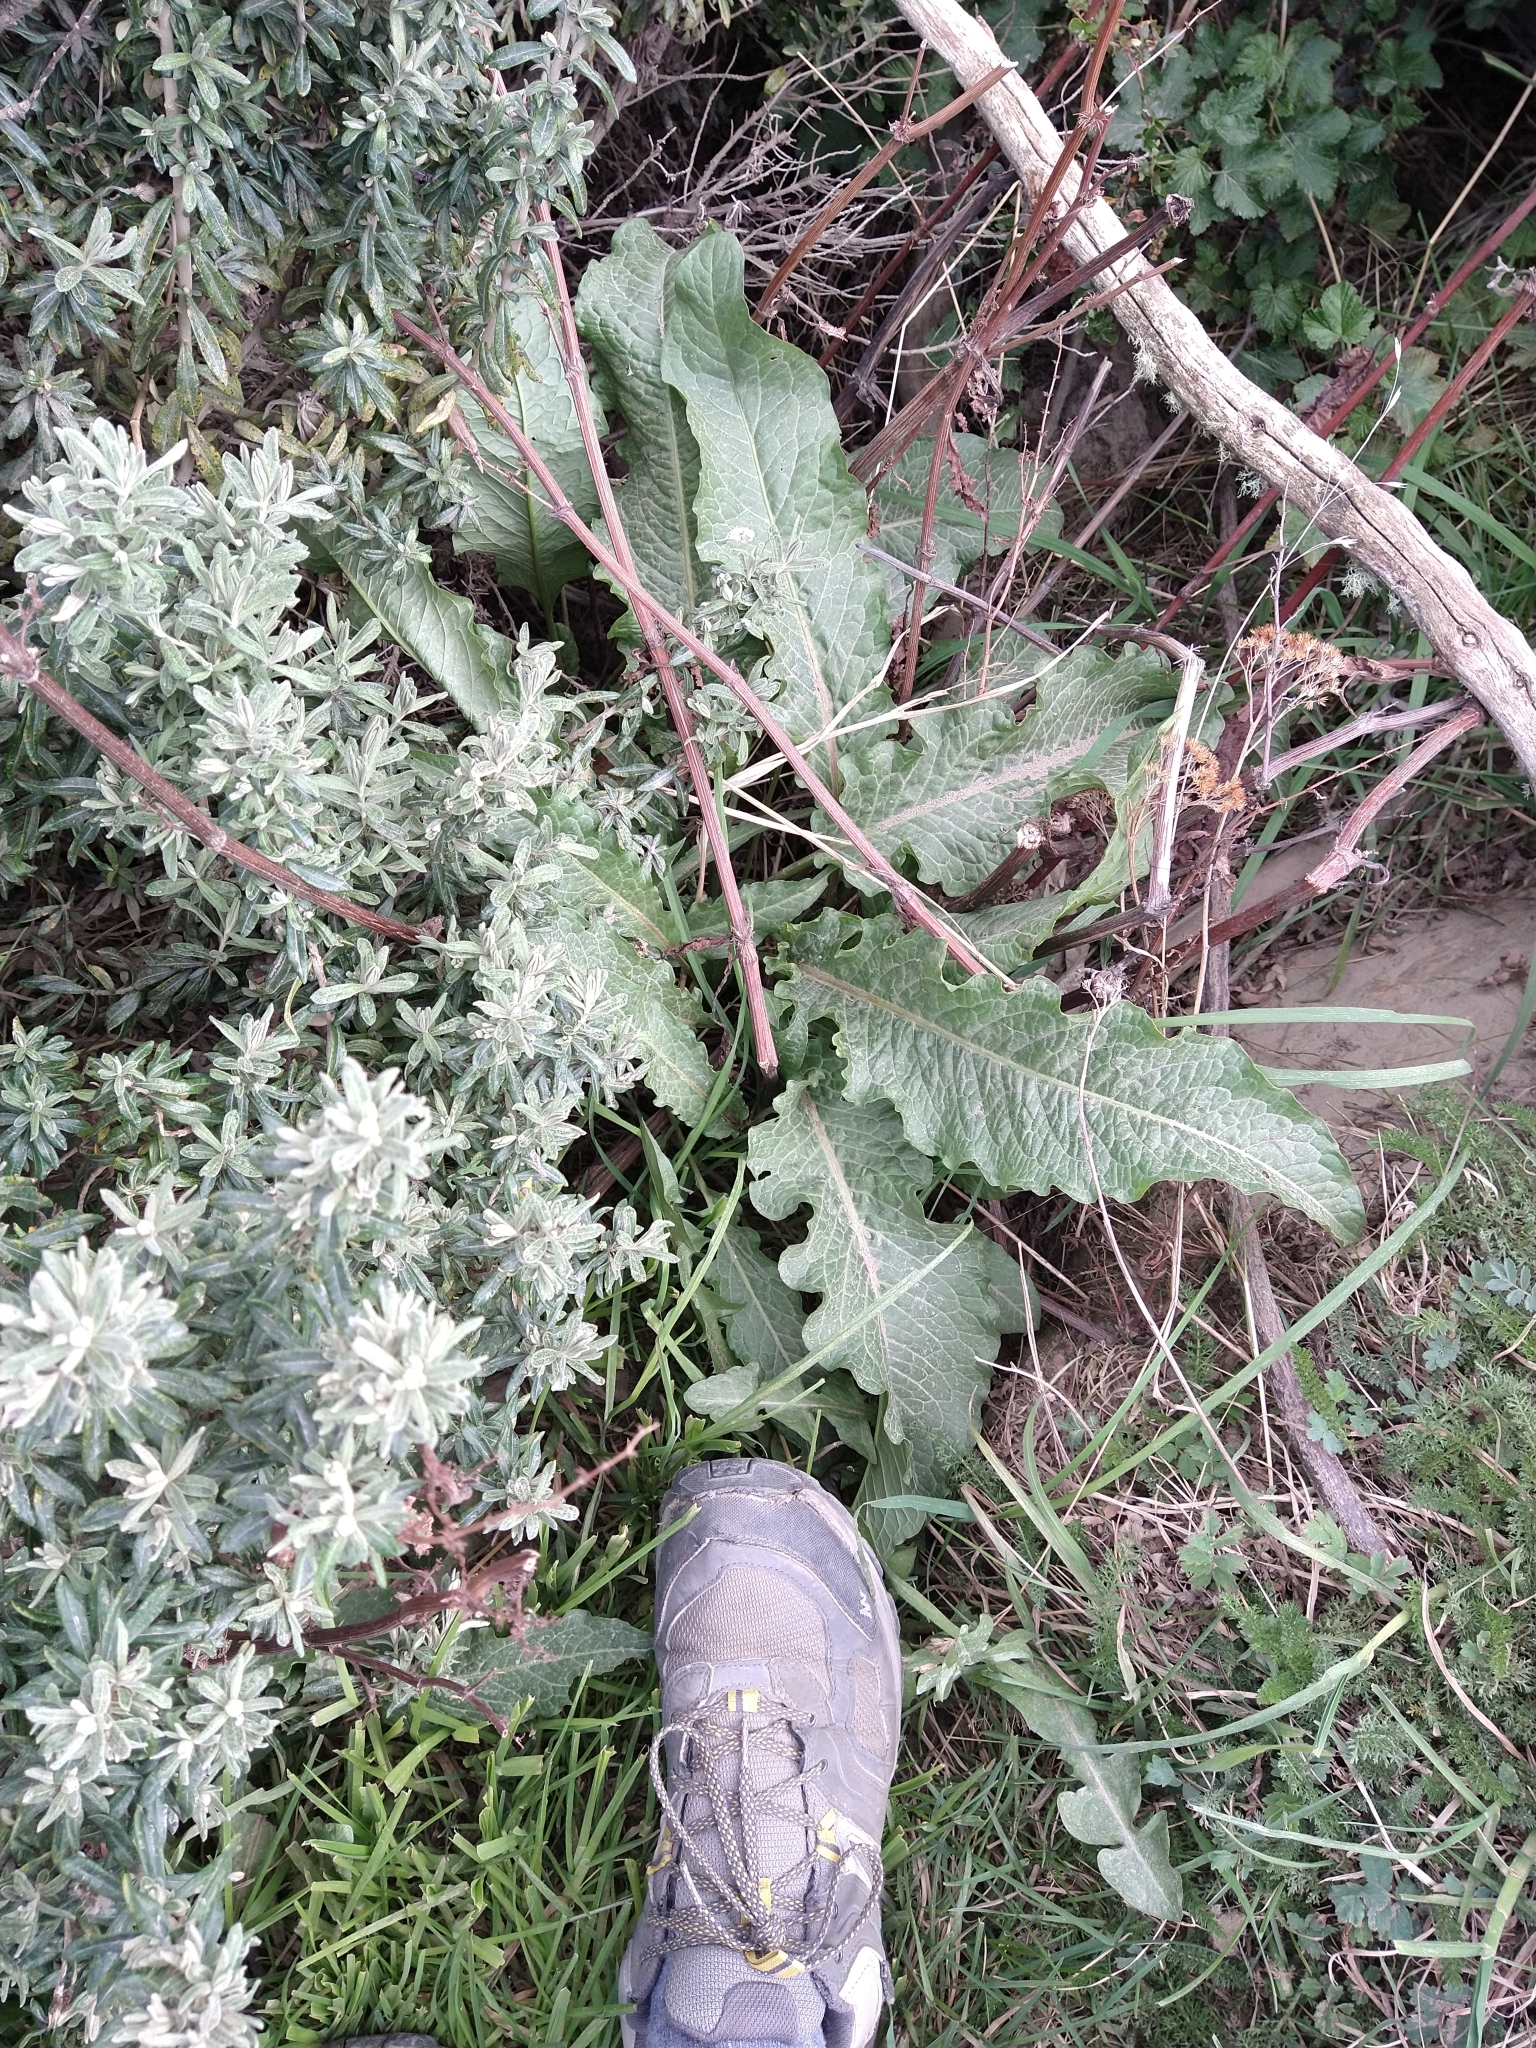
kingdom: Plantae
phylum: Tracheophyta
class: Magnoliopsida
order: Caryophyllales
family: Polygonaceae
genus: Rumex
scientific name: Rumex crispus
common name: Curled dock
